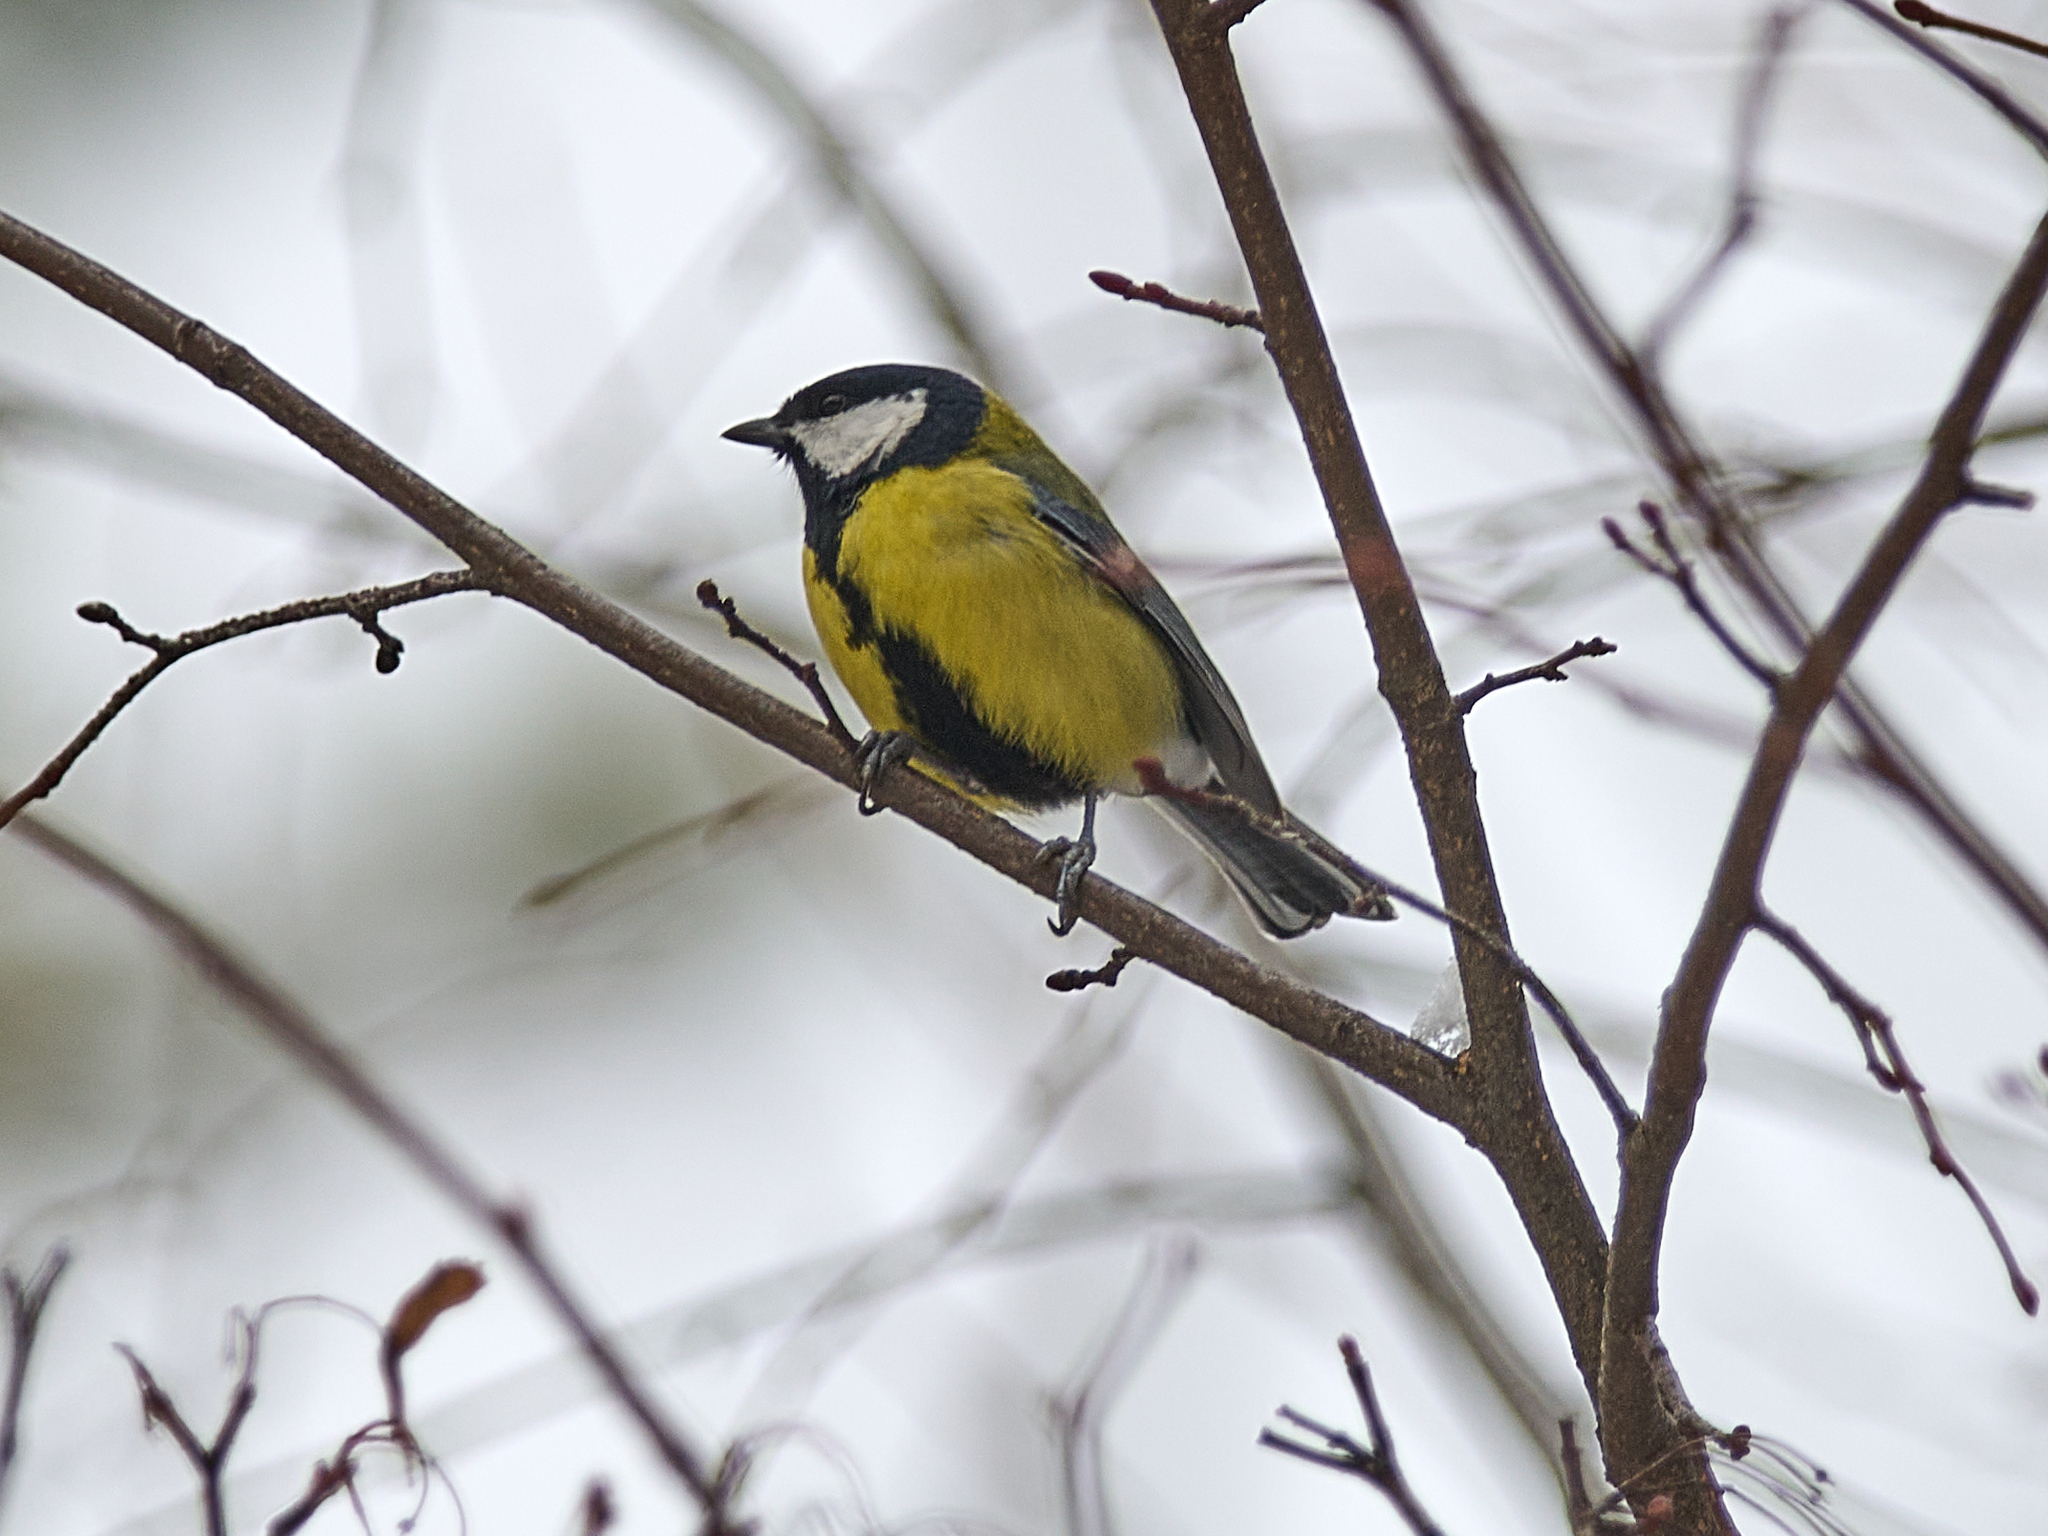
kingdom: Animalia
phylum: Chordata
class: Aves
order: Passeriformes
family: Paridae
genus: Parus
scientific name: Parus major
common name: Great tit
